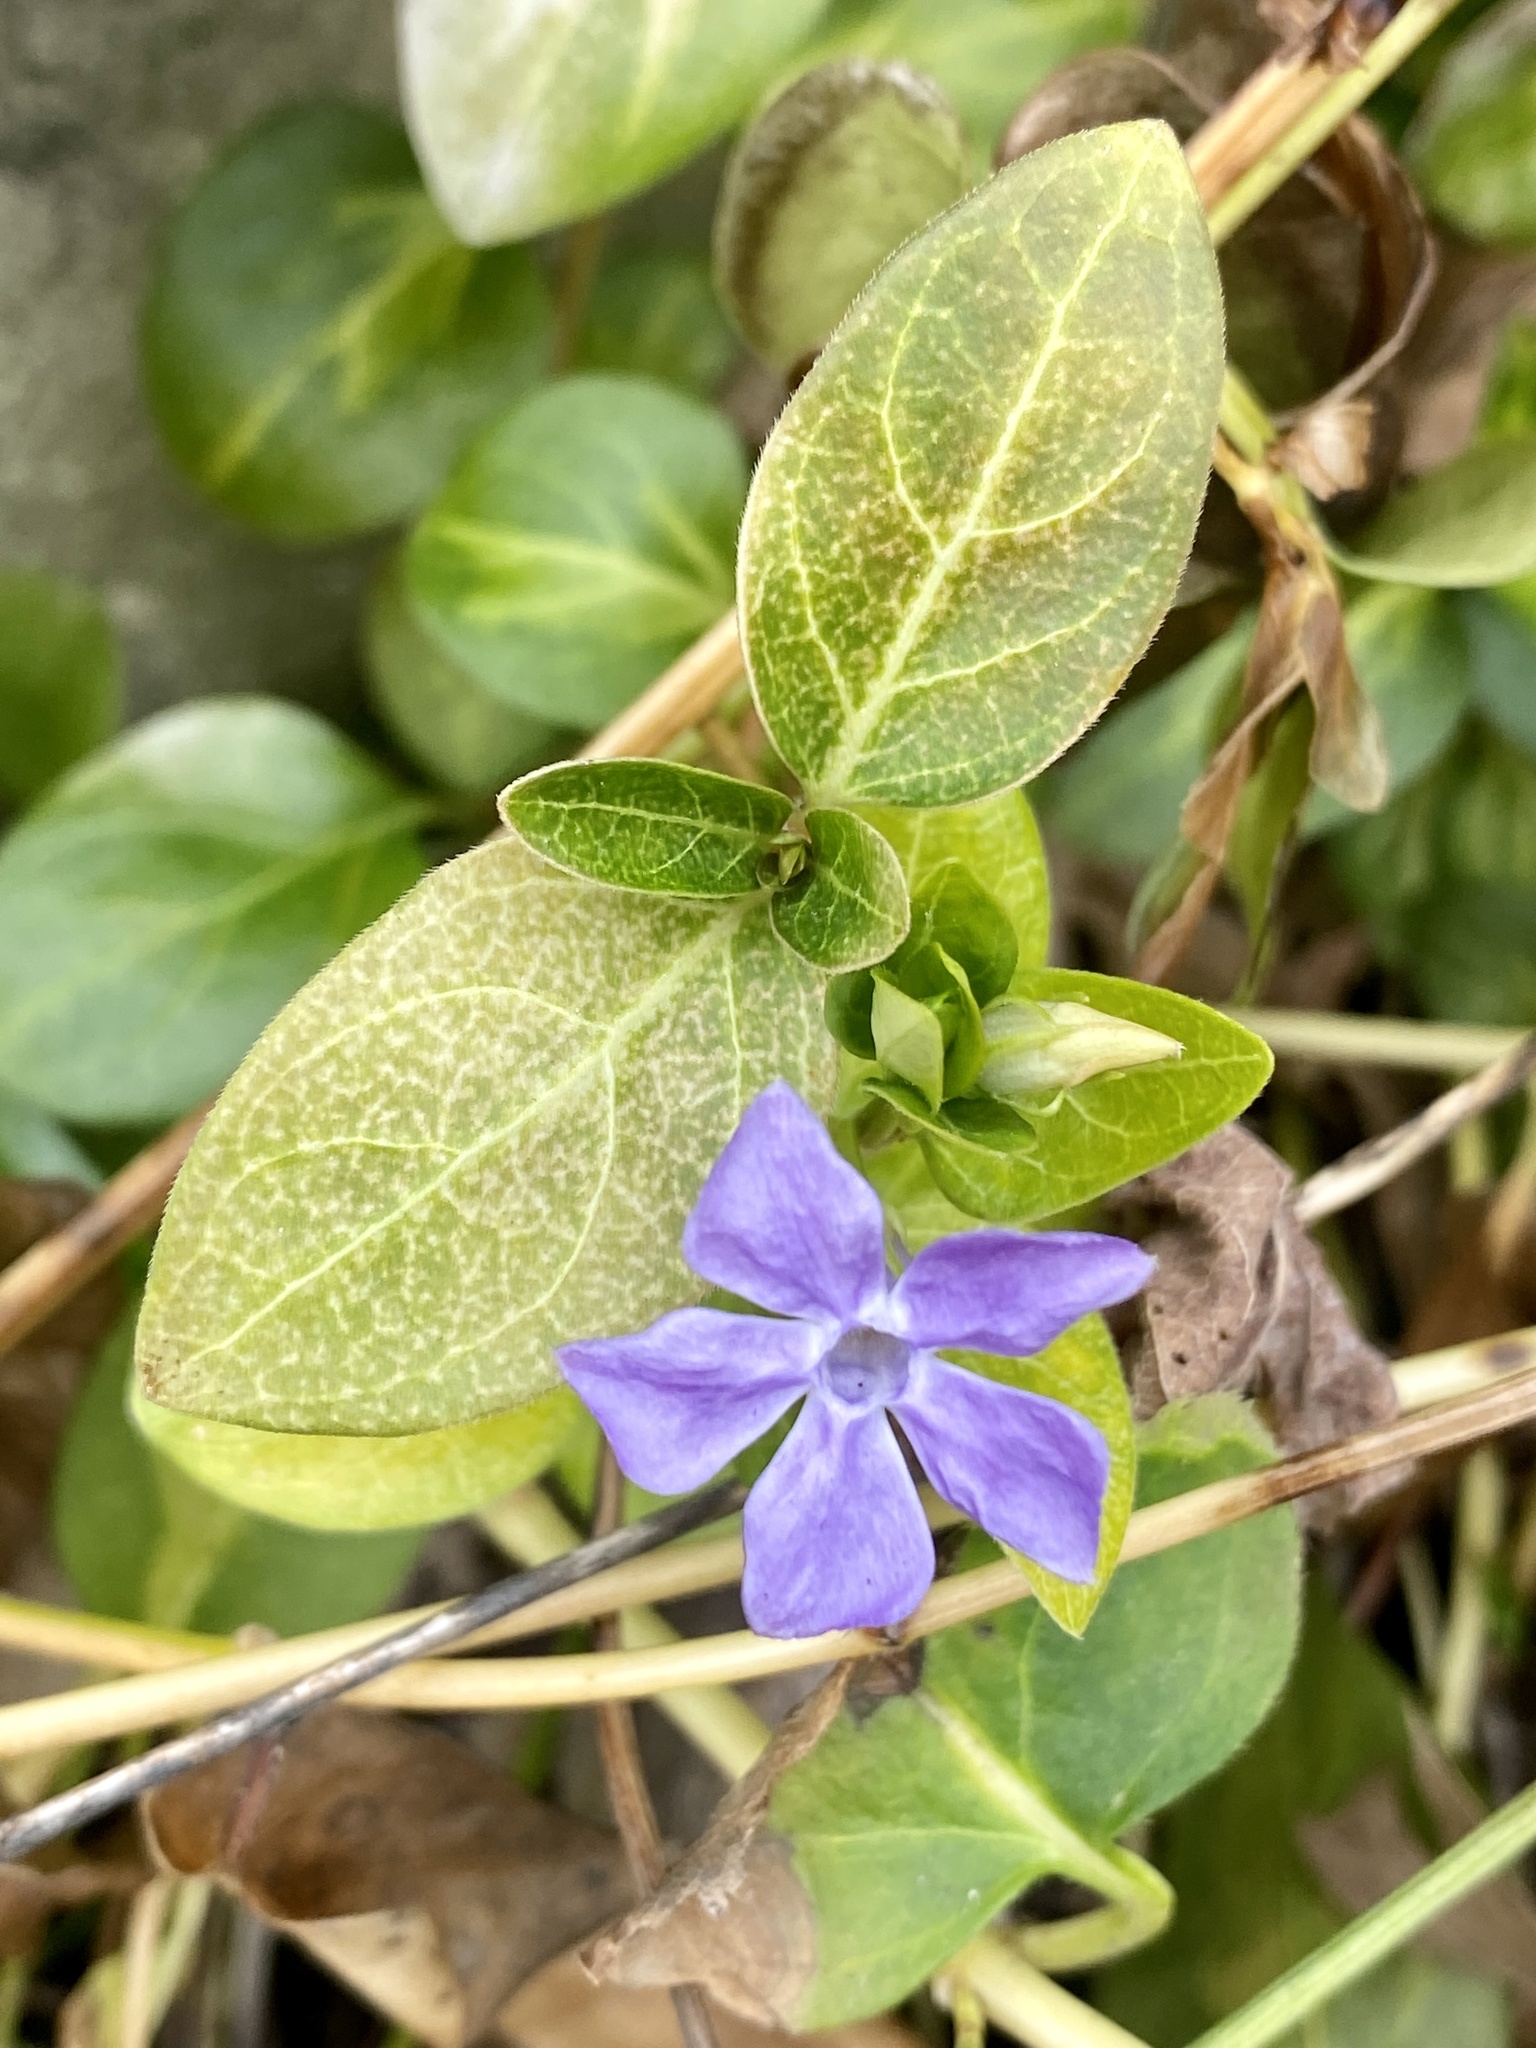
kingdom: Plantae
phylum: Tracheophyta
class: Magnoliopsida
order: Gentianales
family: Apocynaceae
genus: Vinca
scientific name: Vinca major
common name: Greater periwinkle
